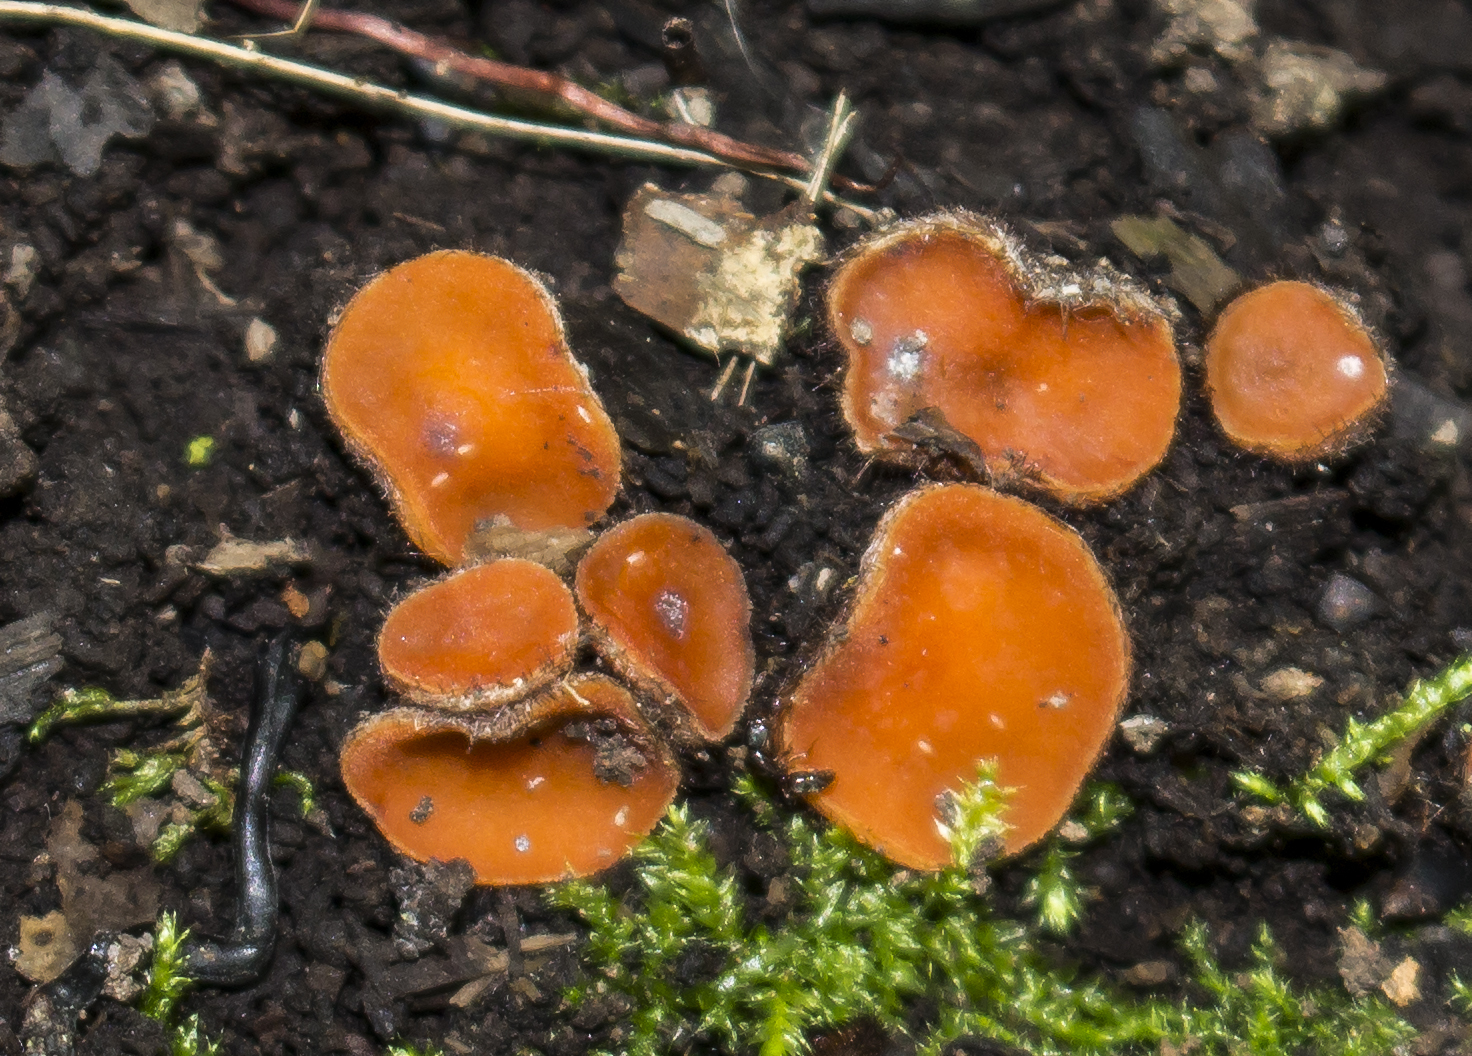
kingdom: Fungi
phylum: Ascomycota
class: Pezizomycetes
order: Pezizales
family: Pyronemataceae
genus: Scutellinia
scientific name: Scutellinia
